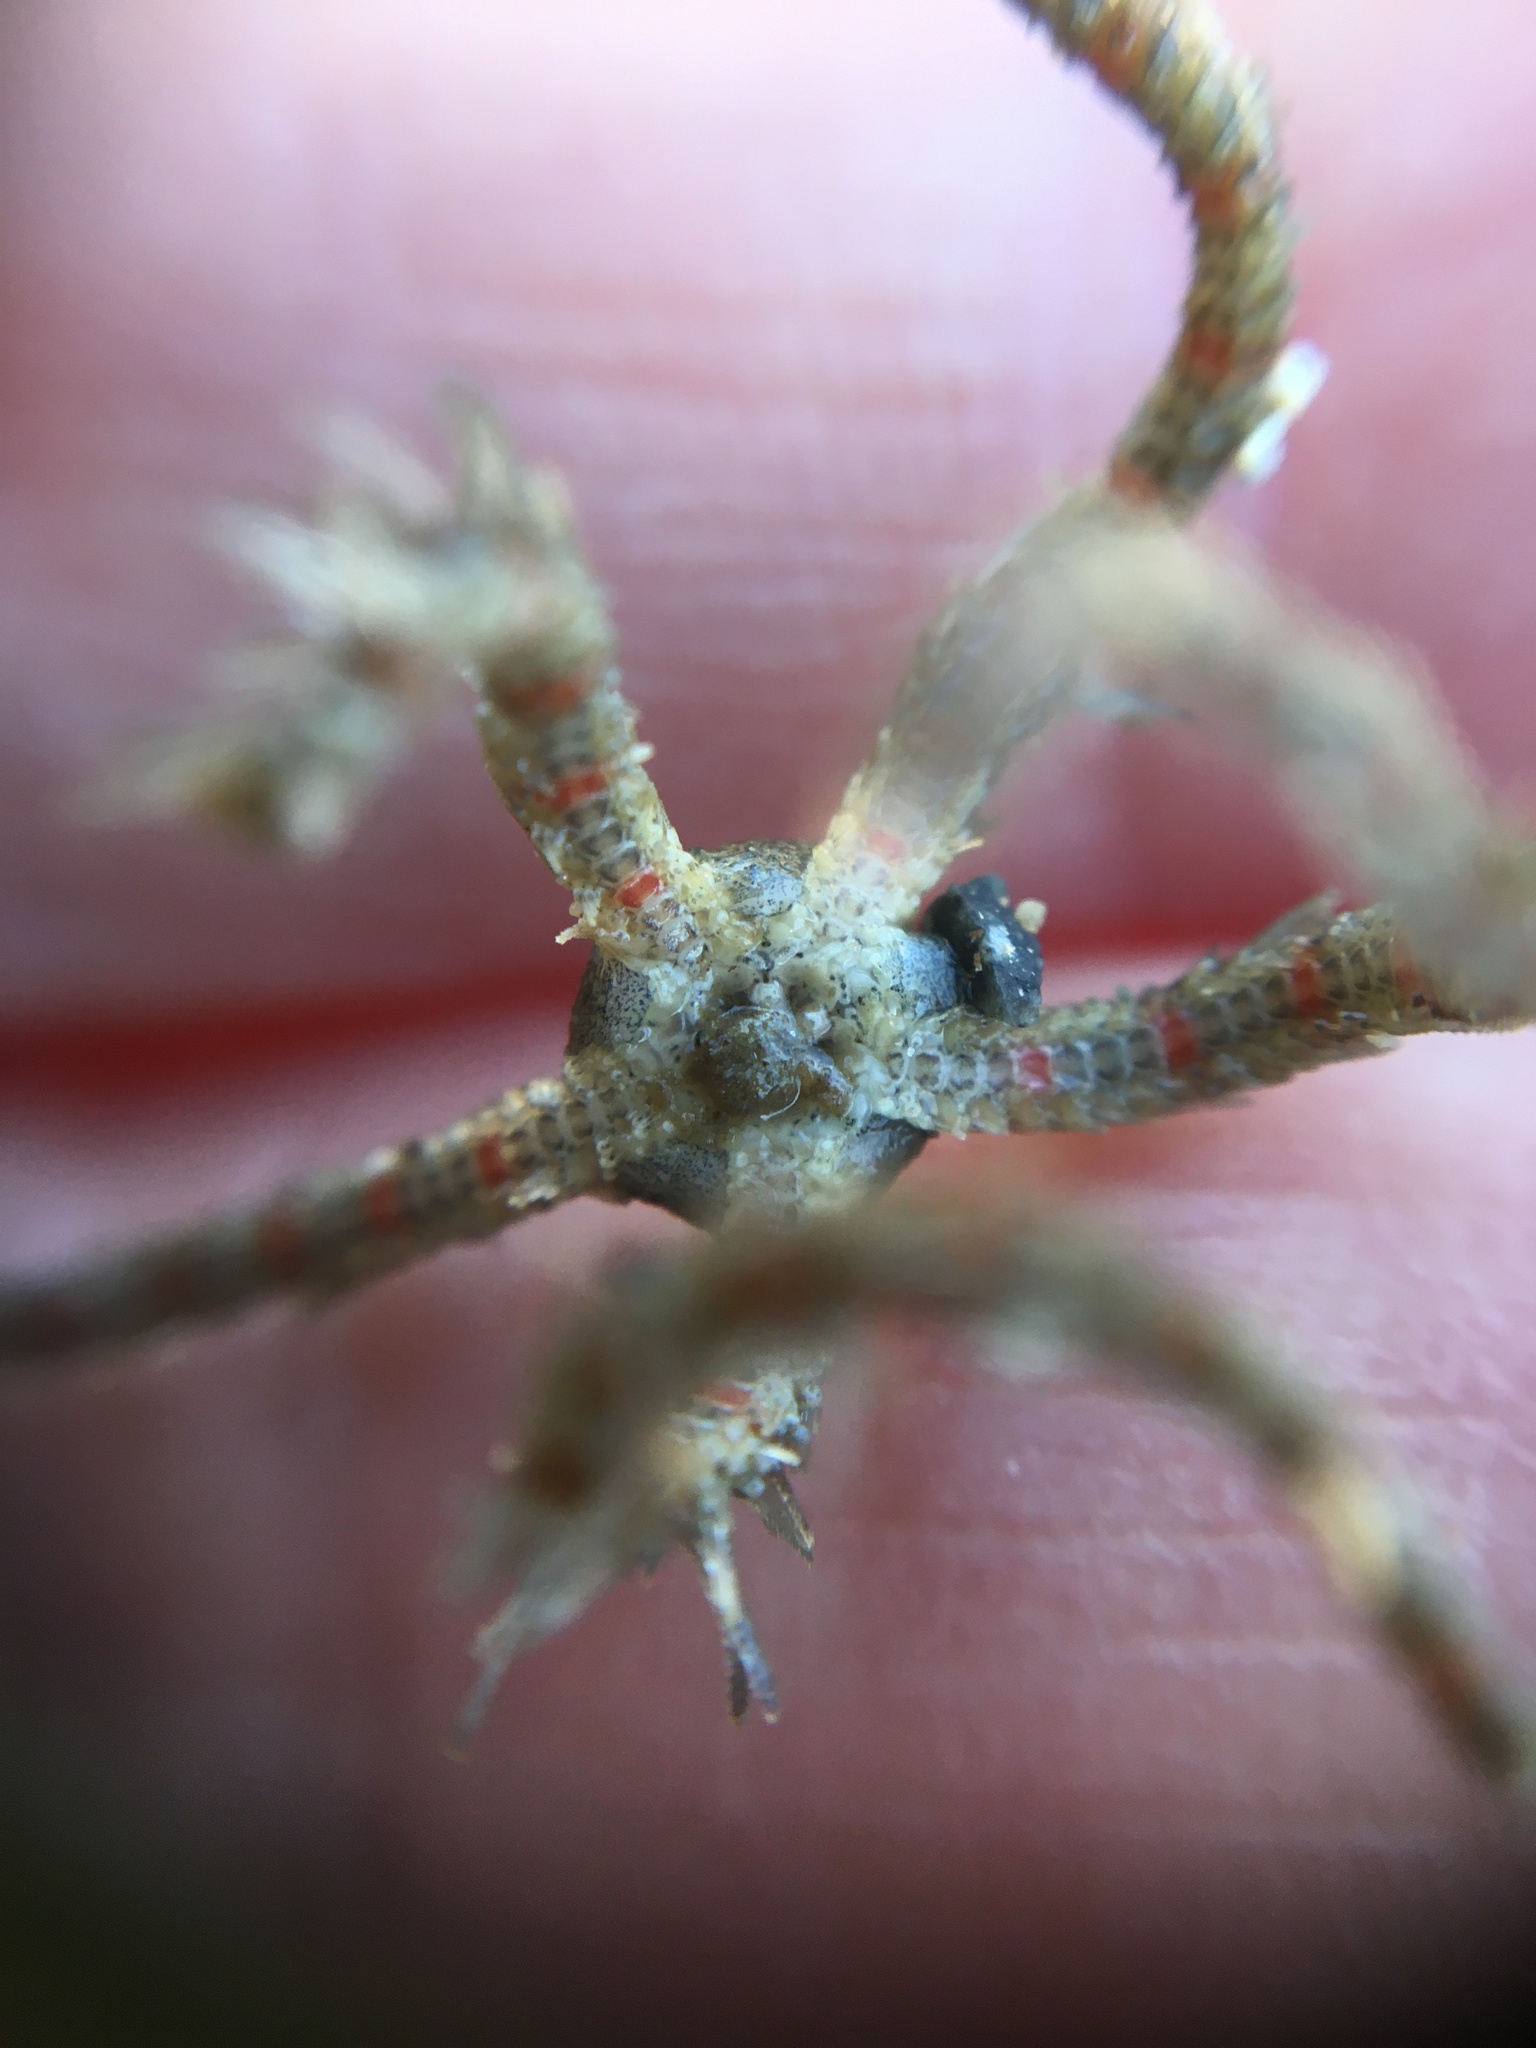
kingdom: Animalia
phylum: Echinodermata
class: Ophiuroidea
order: Amphilepidida
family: Ophiotrichidae
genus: Ophiothrix
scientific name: Ophiothrix spiculata
